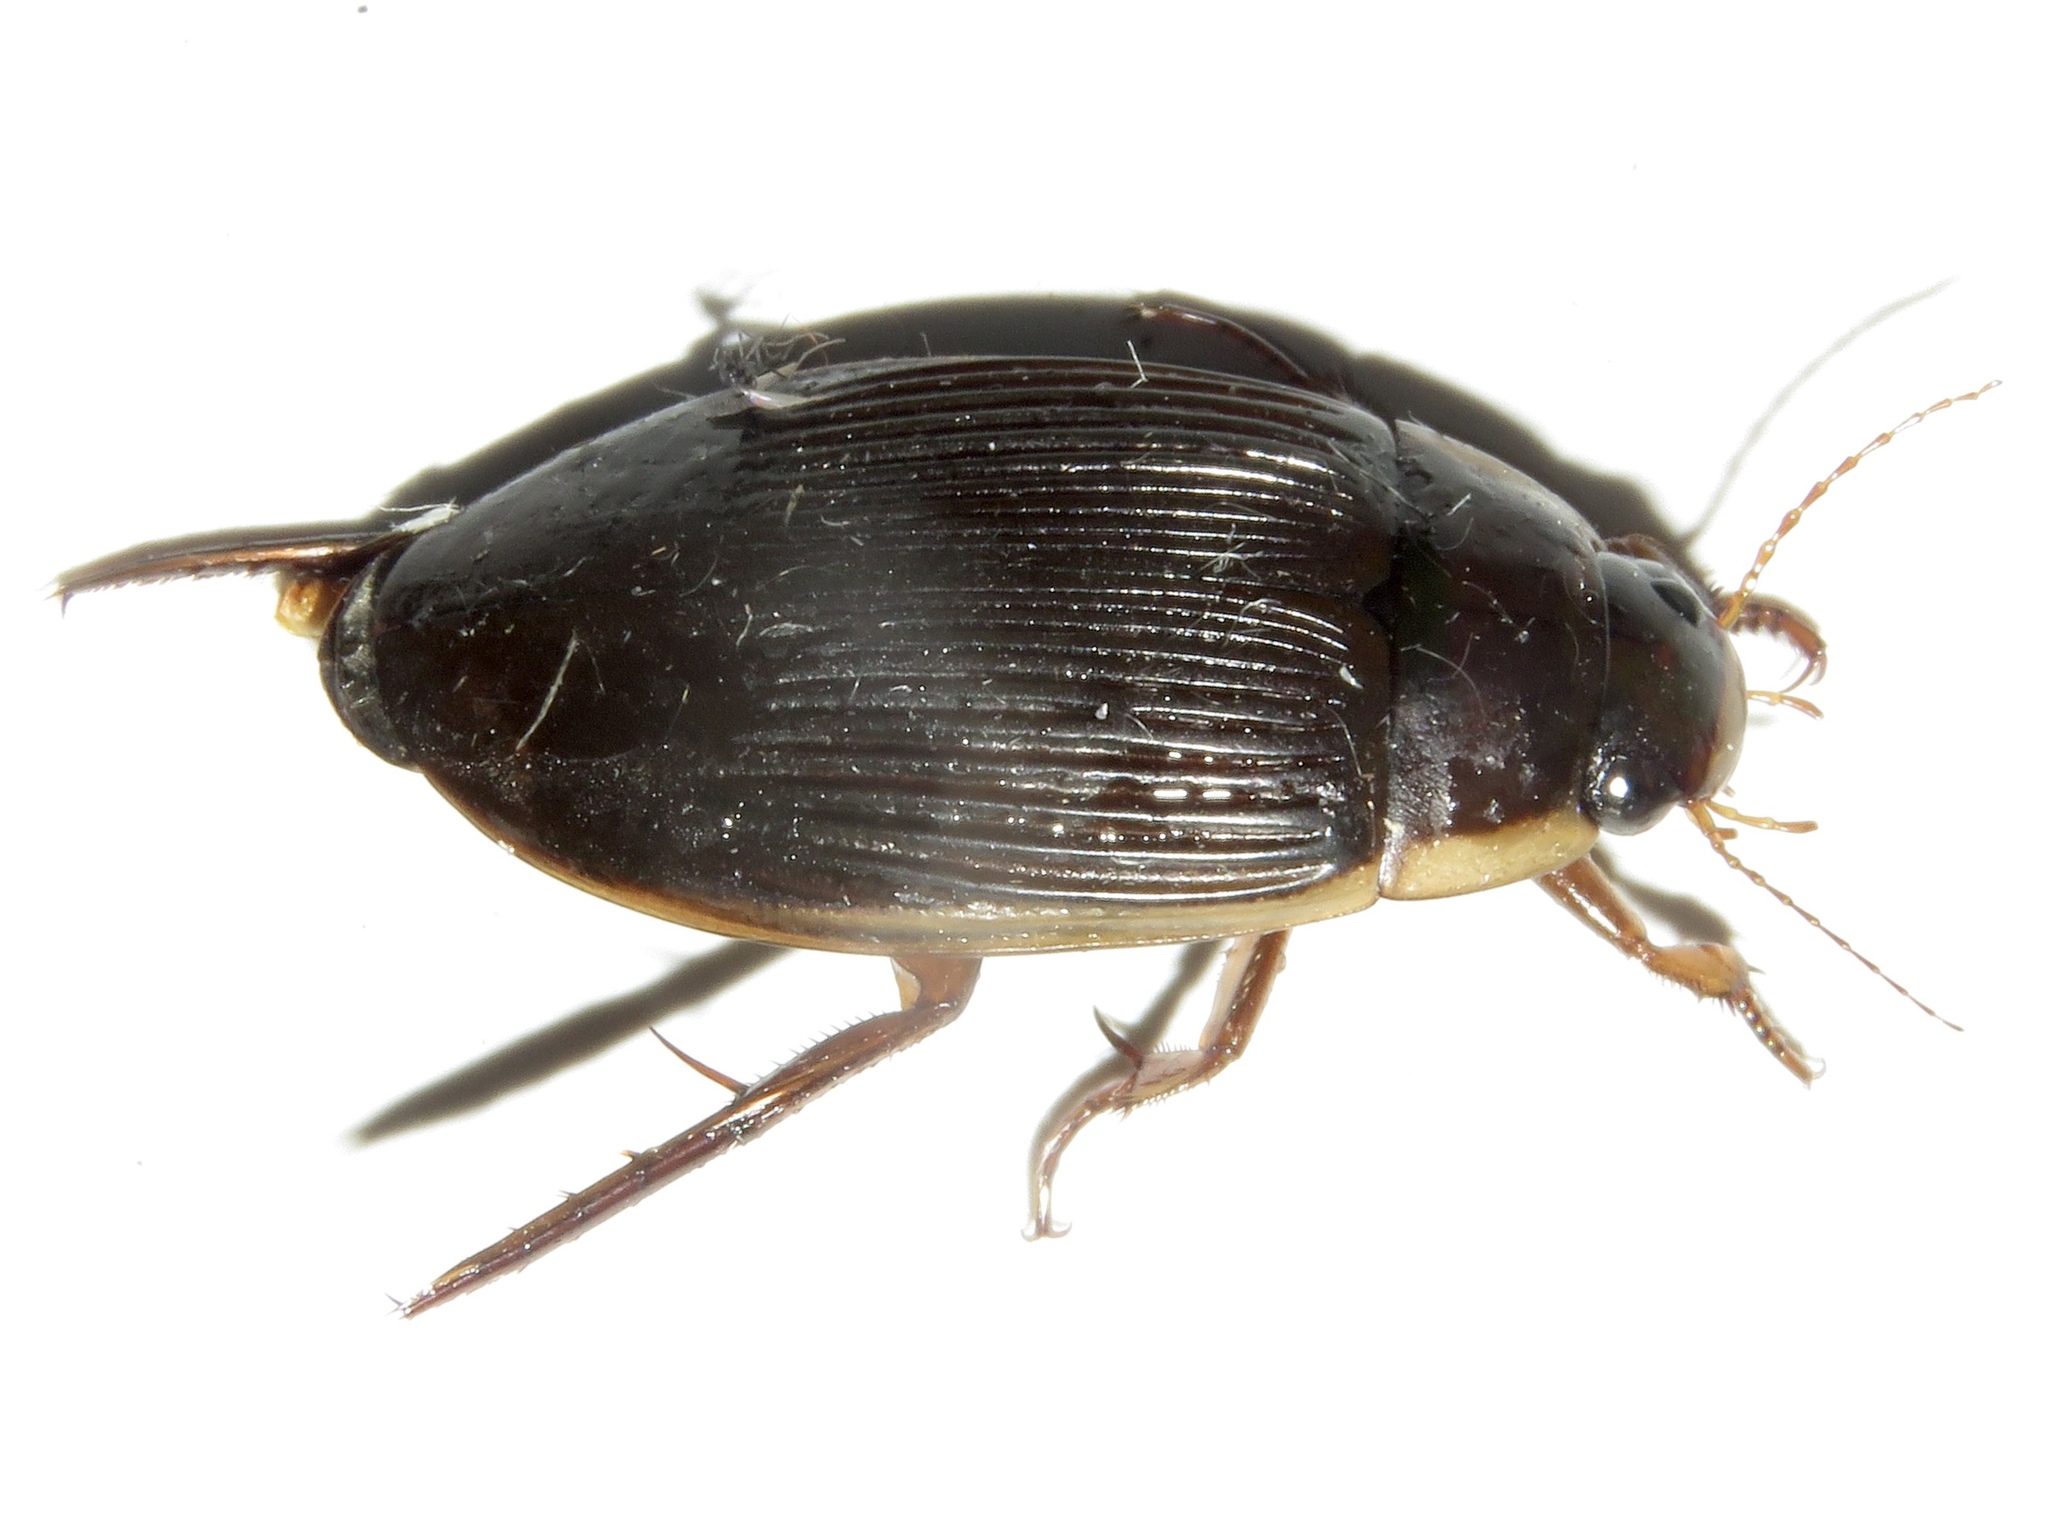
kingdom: Animalia
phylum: Arthropoda
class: Insecta
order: Coleoptera
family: Dytiscidae
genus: Dytiscus
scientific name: Dytiscus fasciventris
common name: Understriped diving beetle
